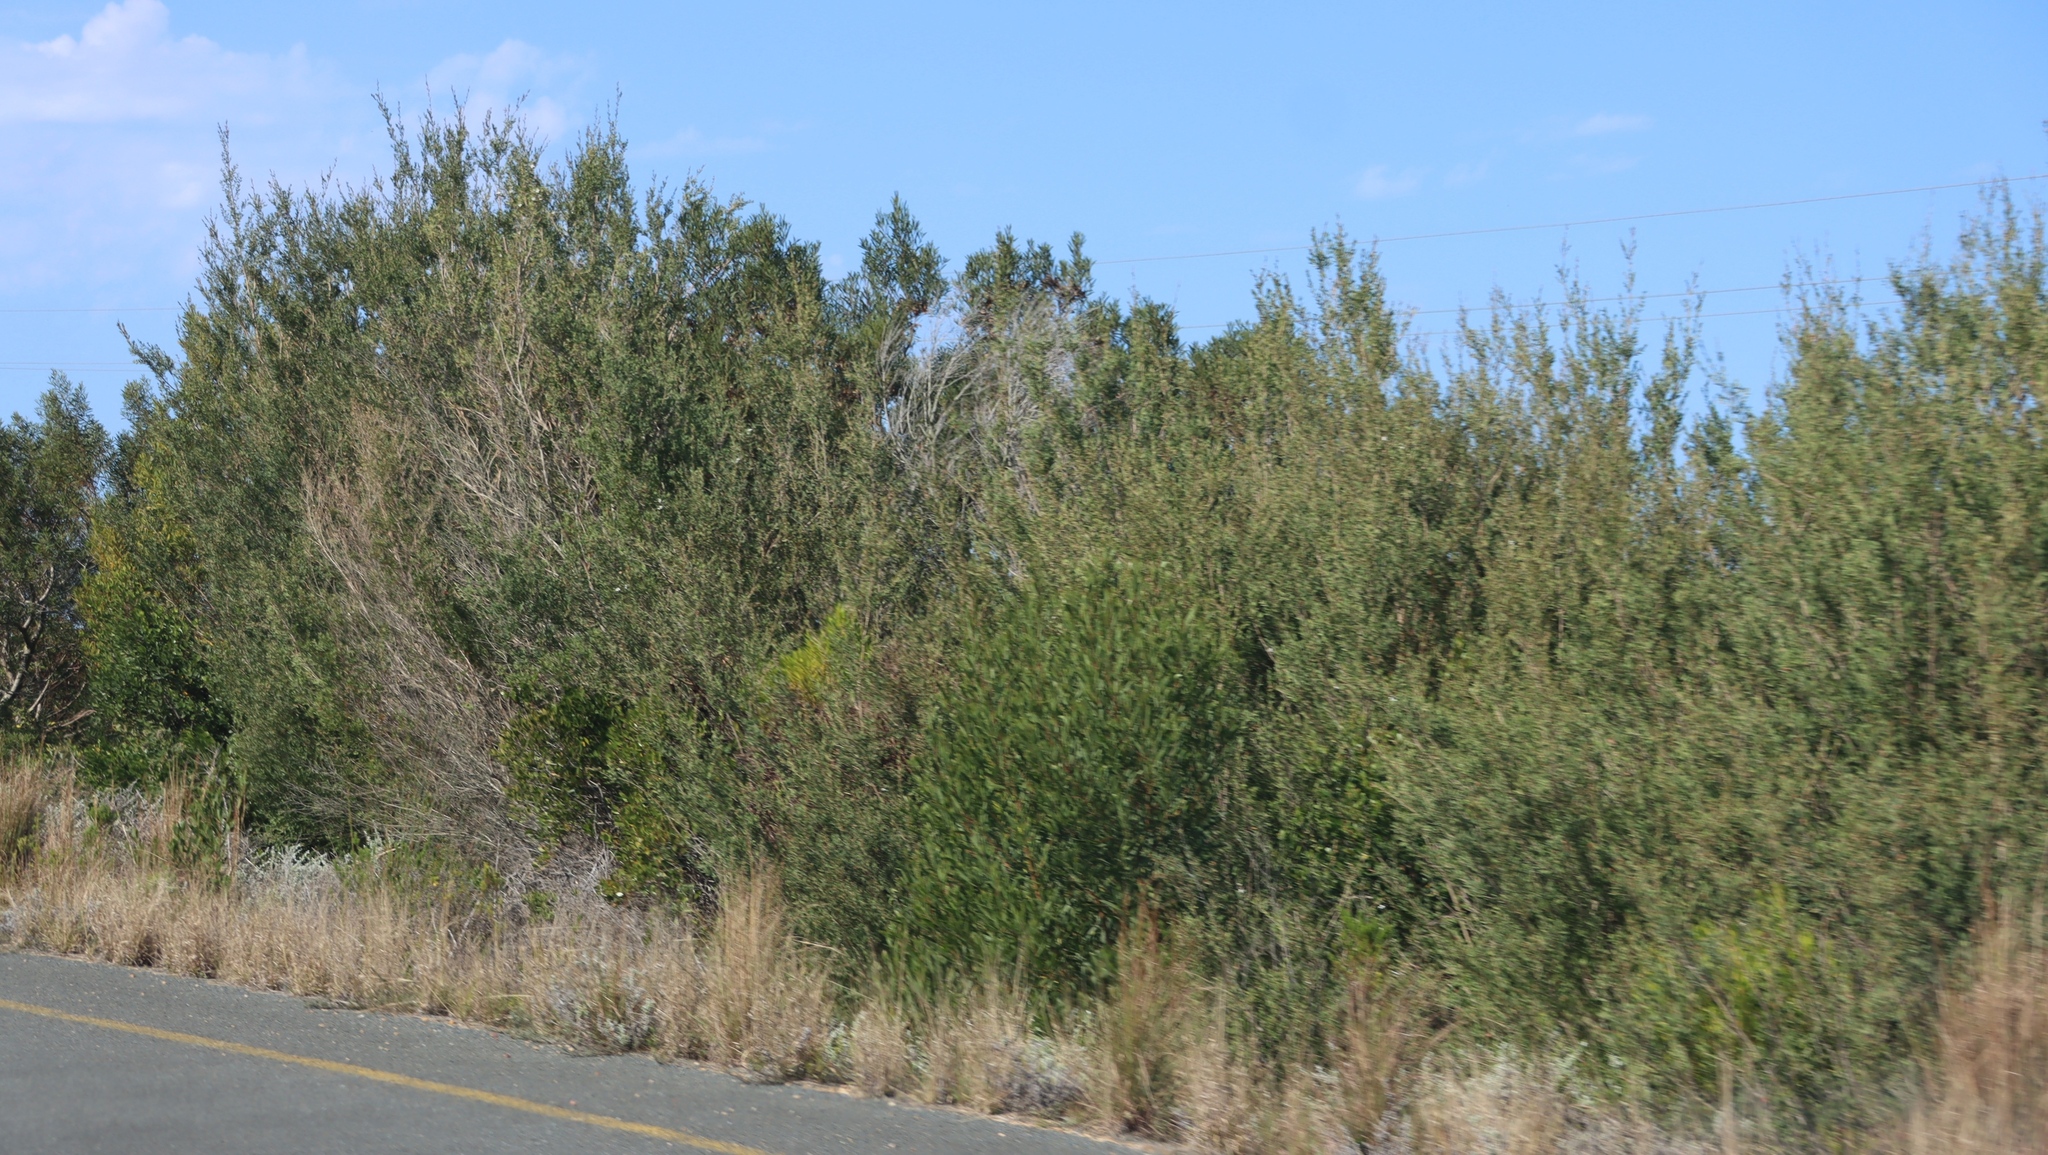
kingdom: Plantae
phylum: Tracheophyta
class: Magnoliopsida
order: Myrtales
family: Myrtaceae
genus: Leptospermum
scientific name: Leptospermum laevigatum
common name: Australian teatree
